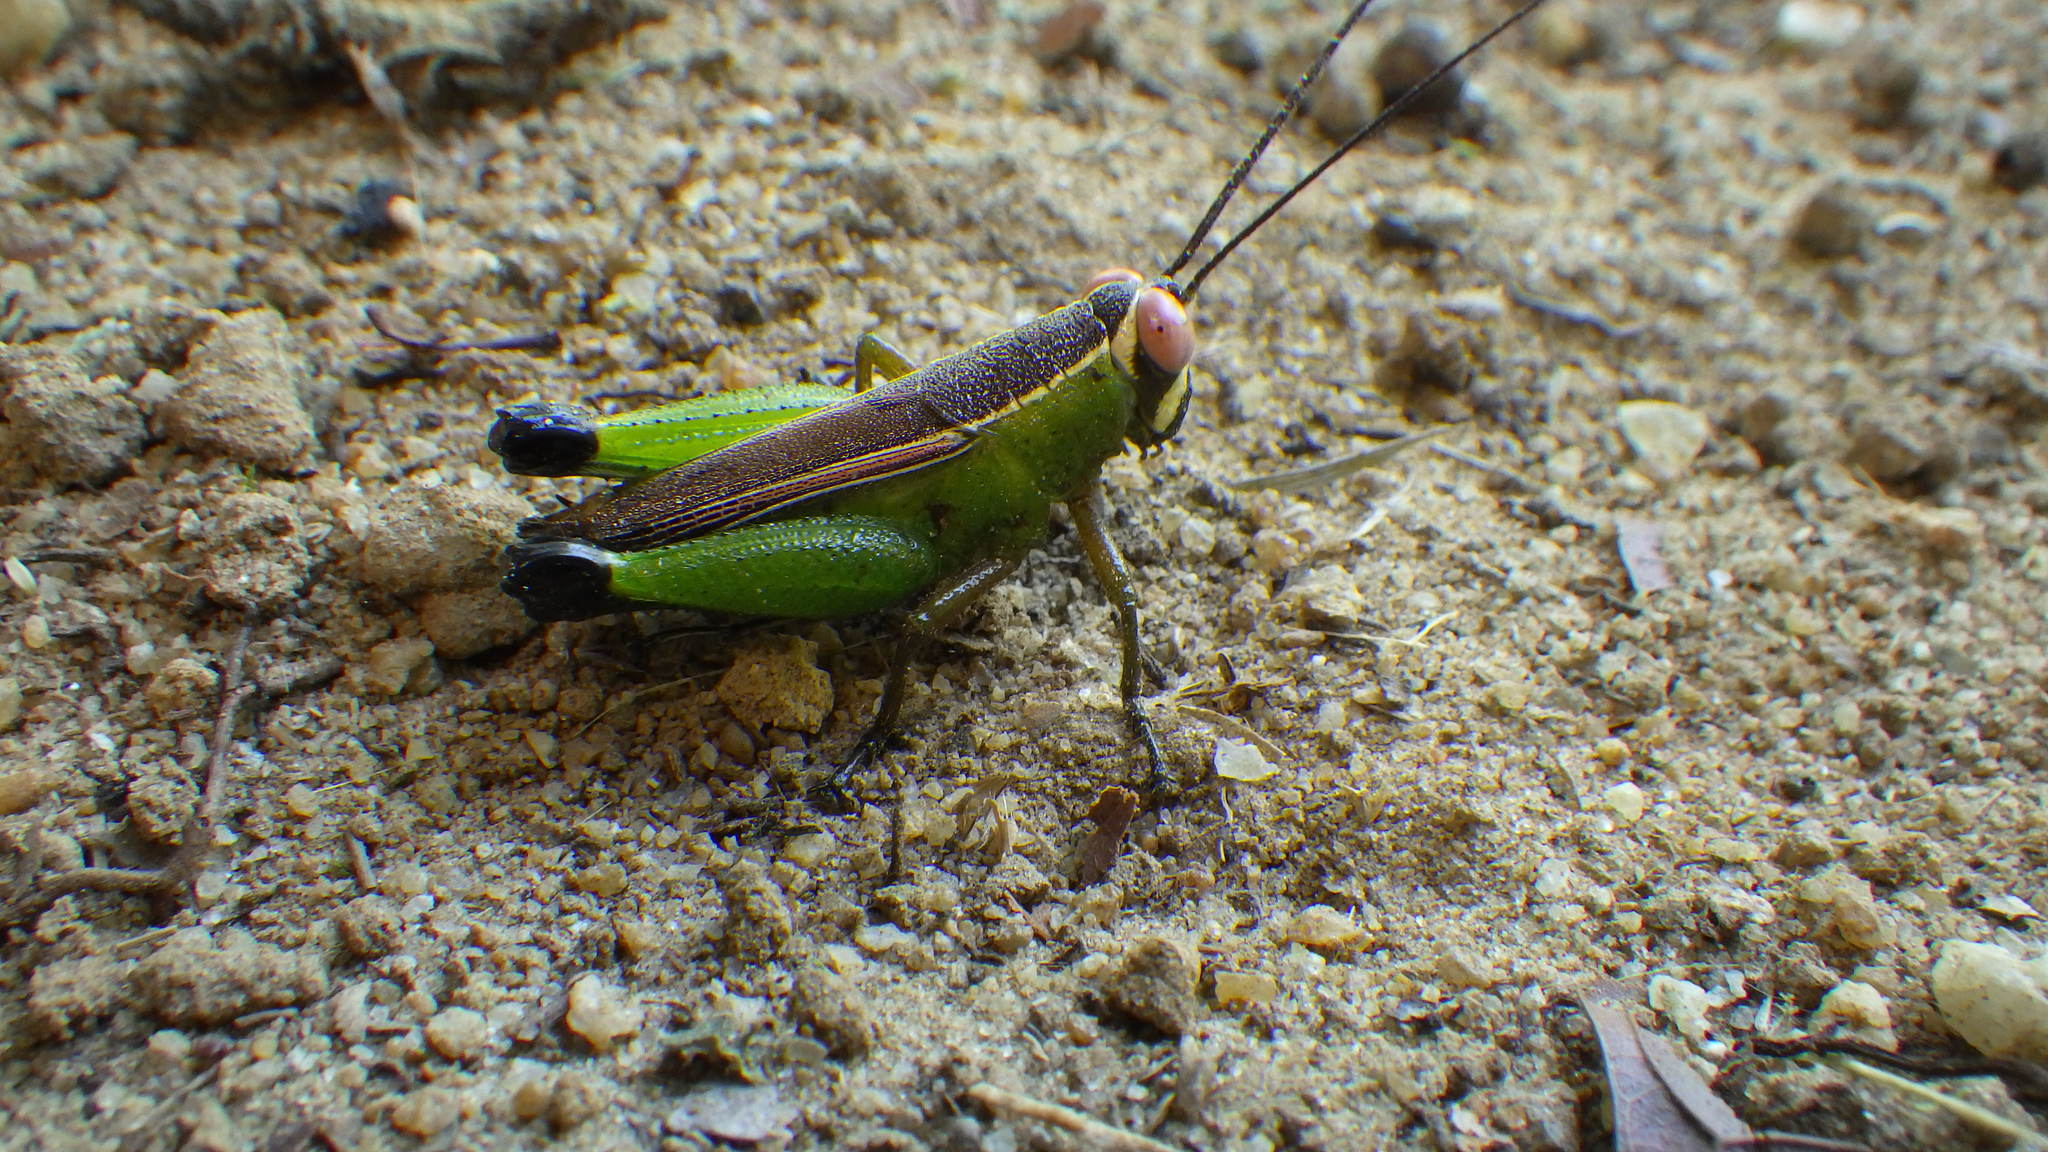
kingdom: Animalia
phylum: Arthropoda
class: Insecta
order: Orthoptera
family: Romaleidae
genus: Adrolampis
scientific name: Adrolampis insolens
